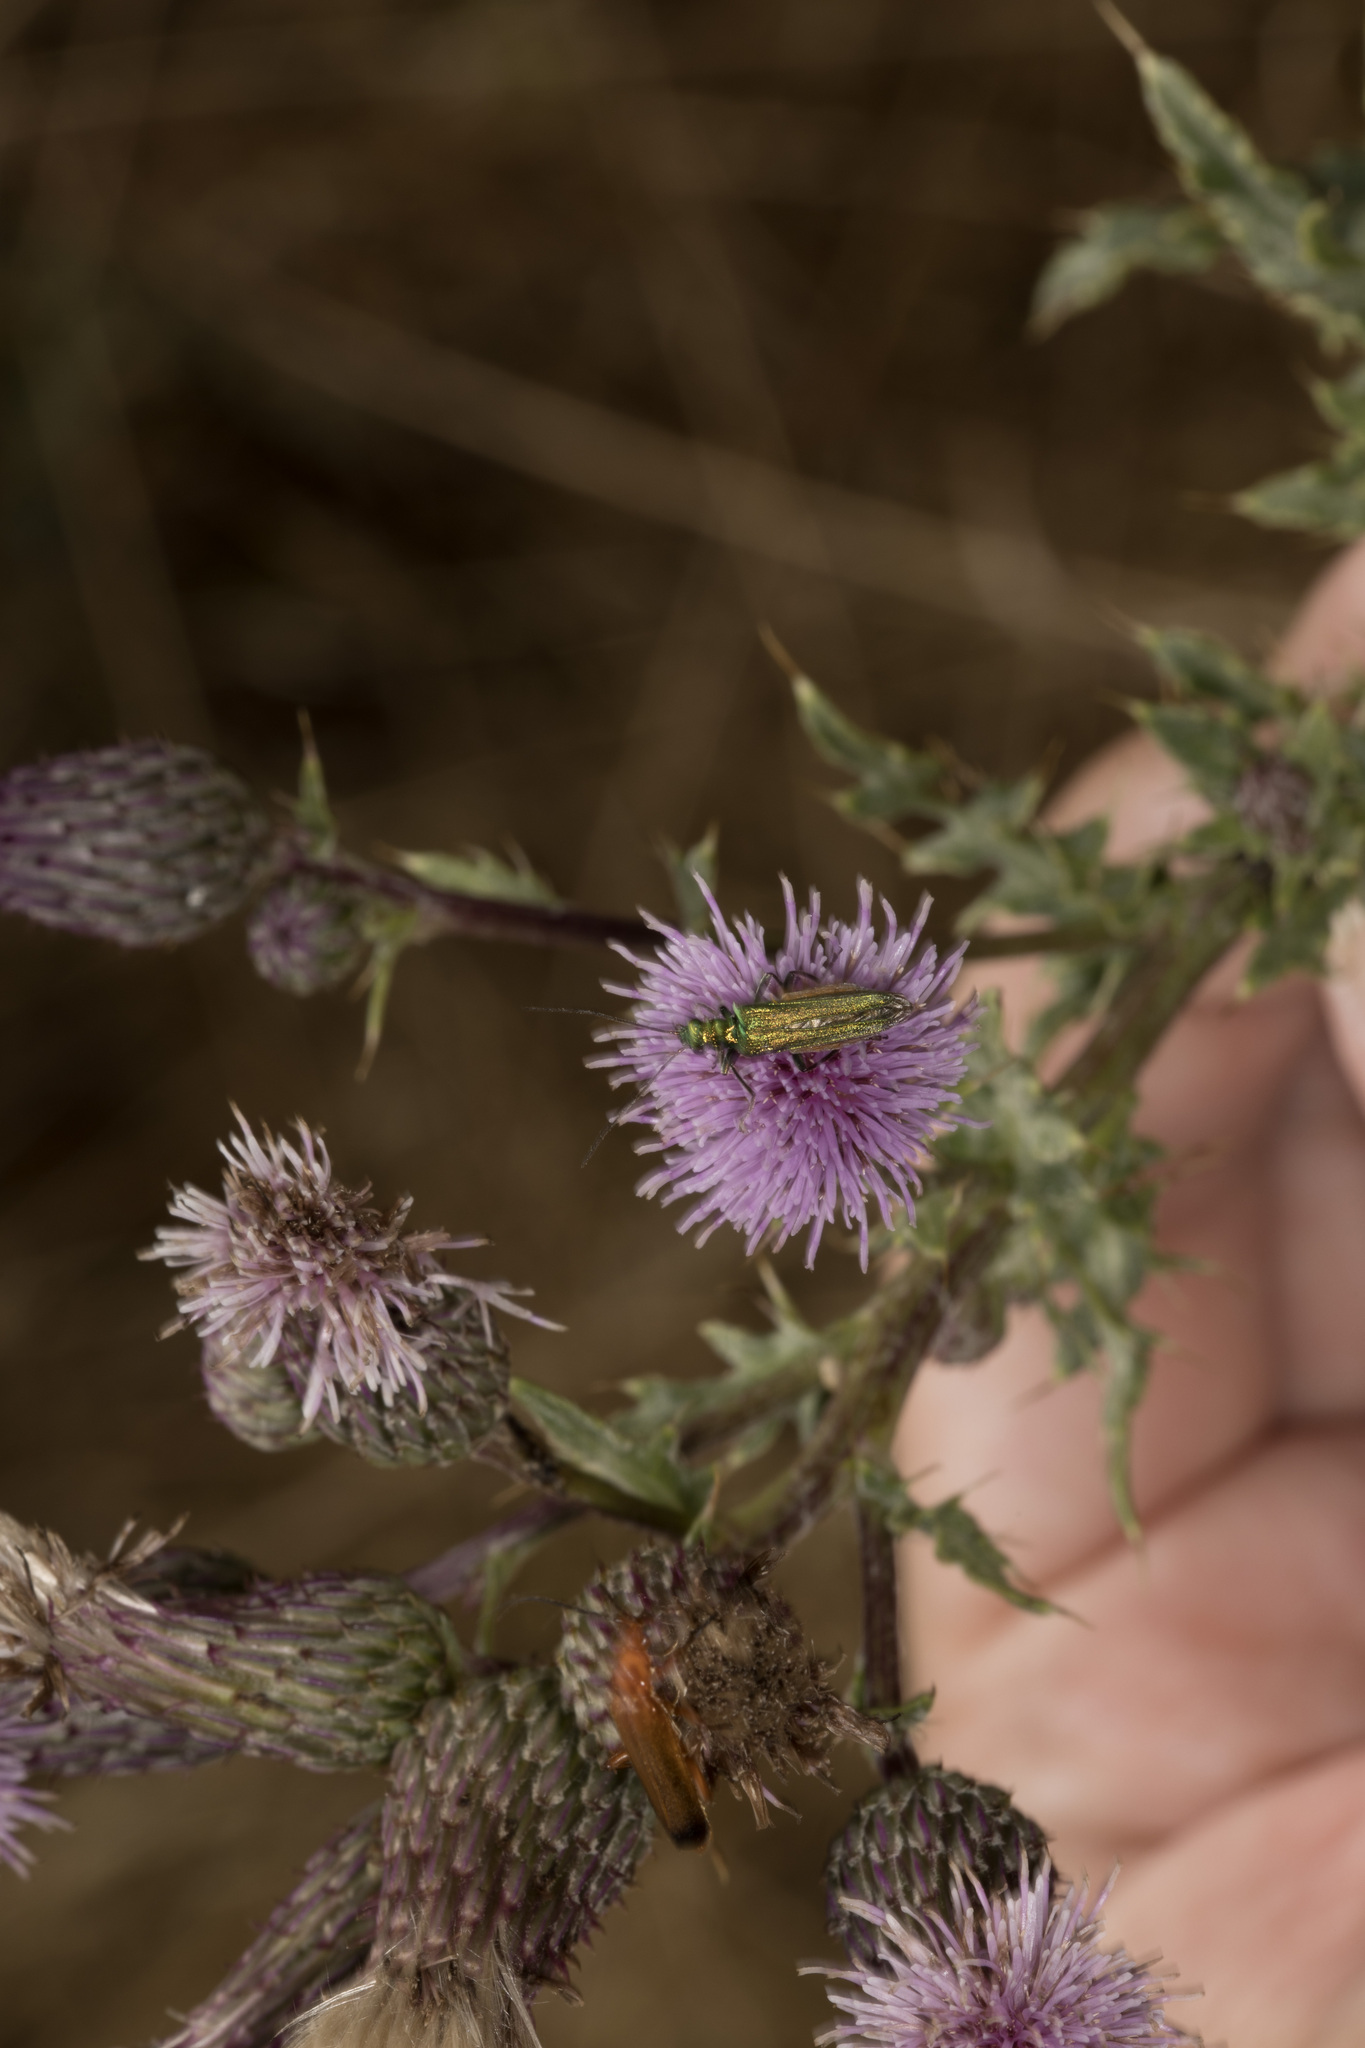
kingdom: Animalia
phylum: Arthropoda
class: Insecta
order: Coleoptera
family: Oedemeridae
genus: Oedemera
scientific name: Oedemera nobilis
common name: Swollen-thighed beetle
